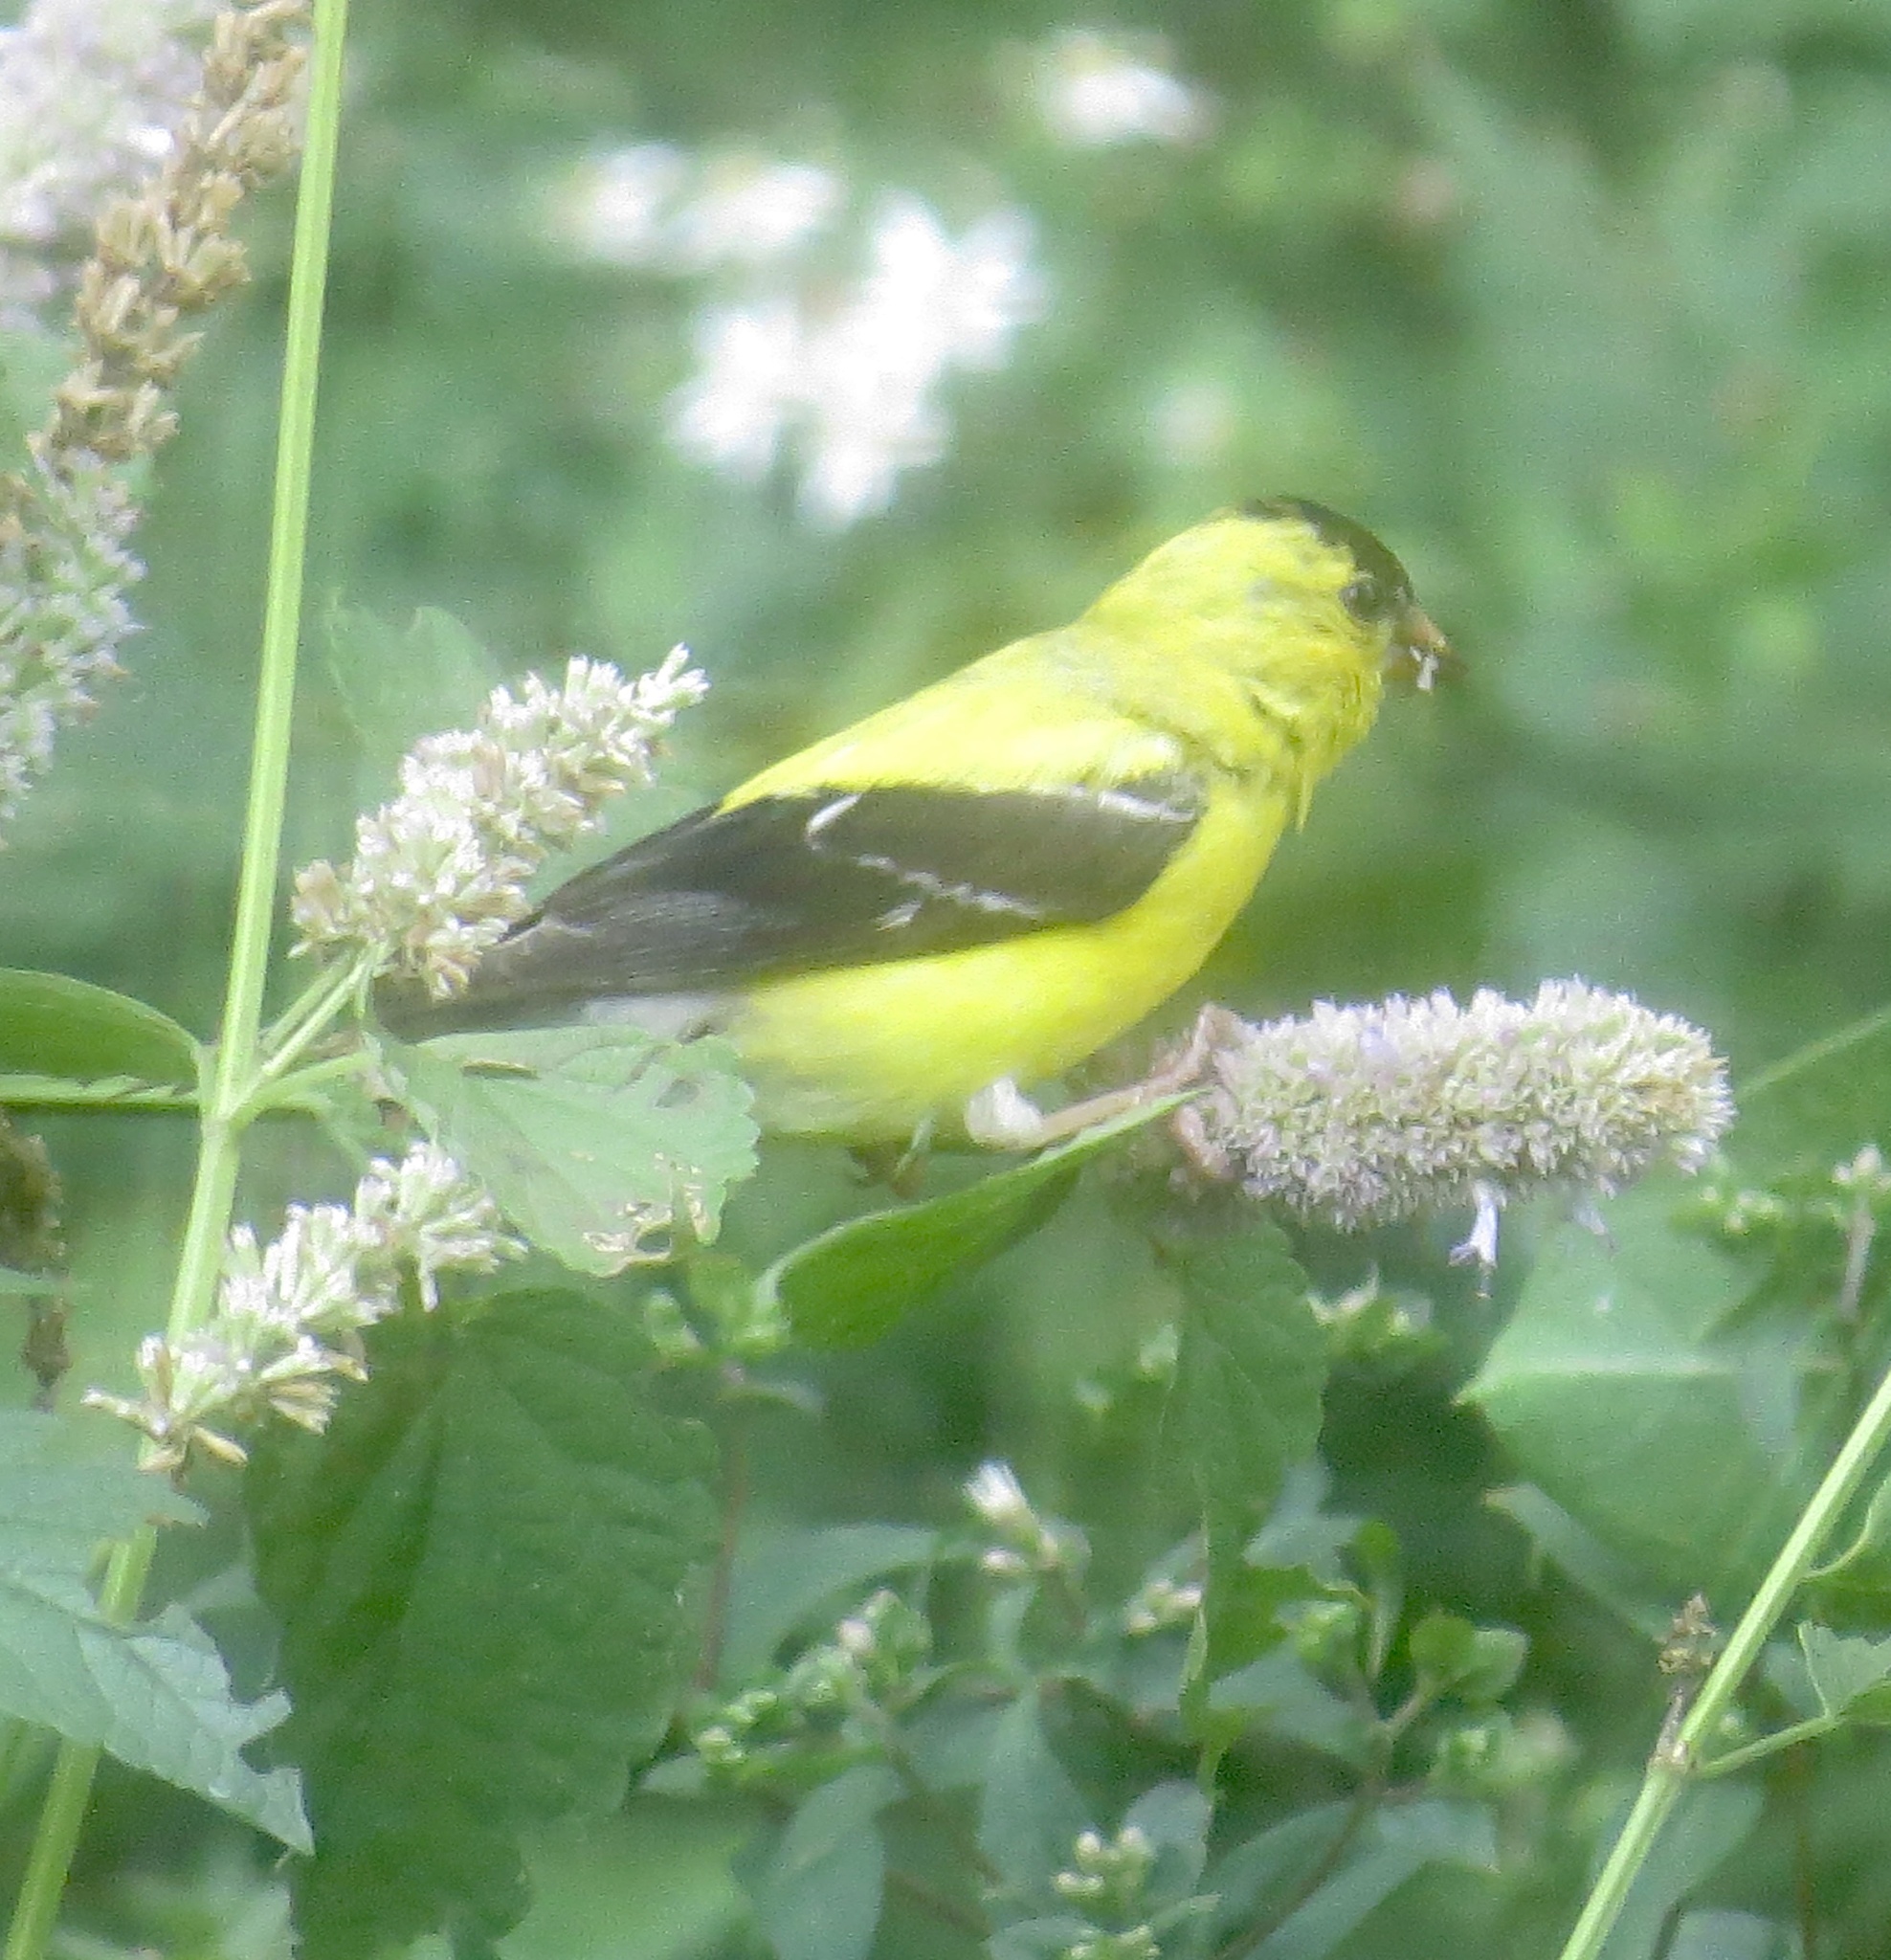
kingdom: Animalia
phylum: Chordata
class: Aves
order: Passeriformes
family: Fringillidae
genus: Spinus
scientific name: Spinus tristis
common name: American goldfinch
